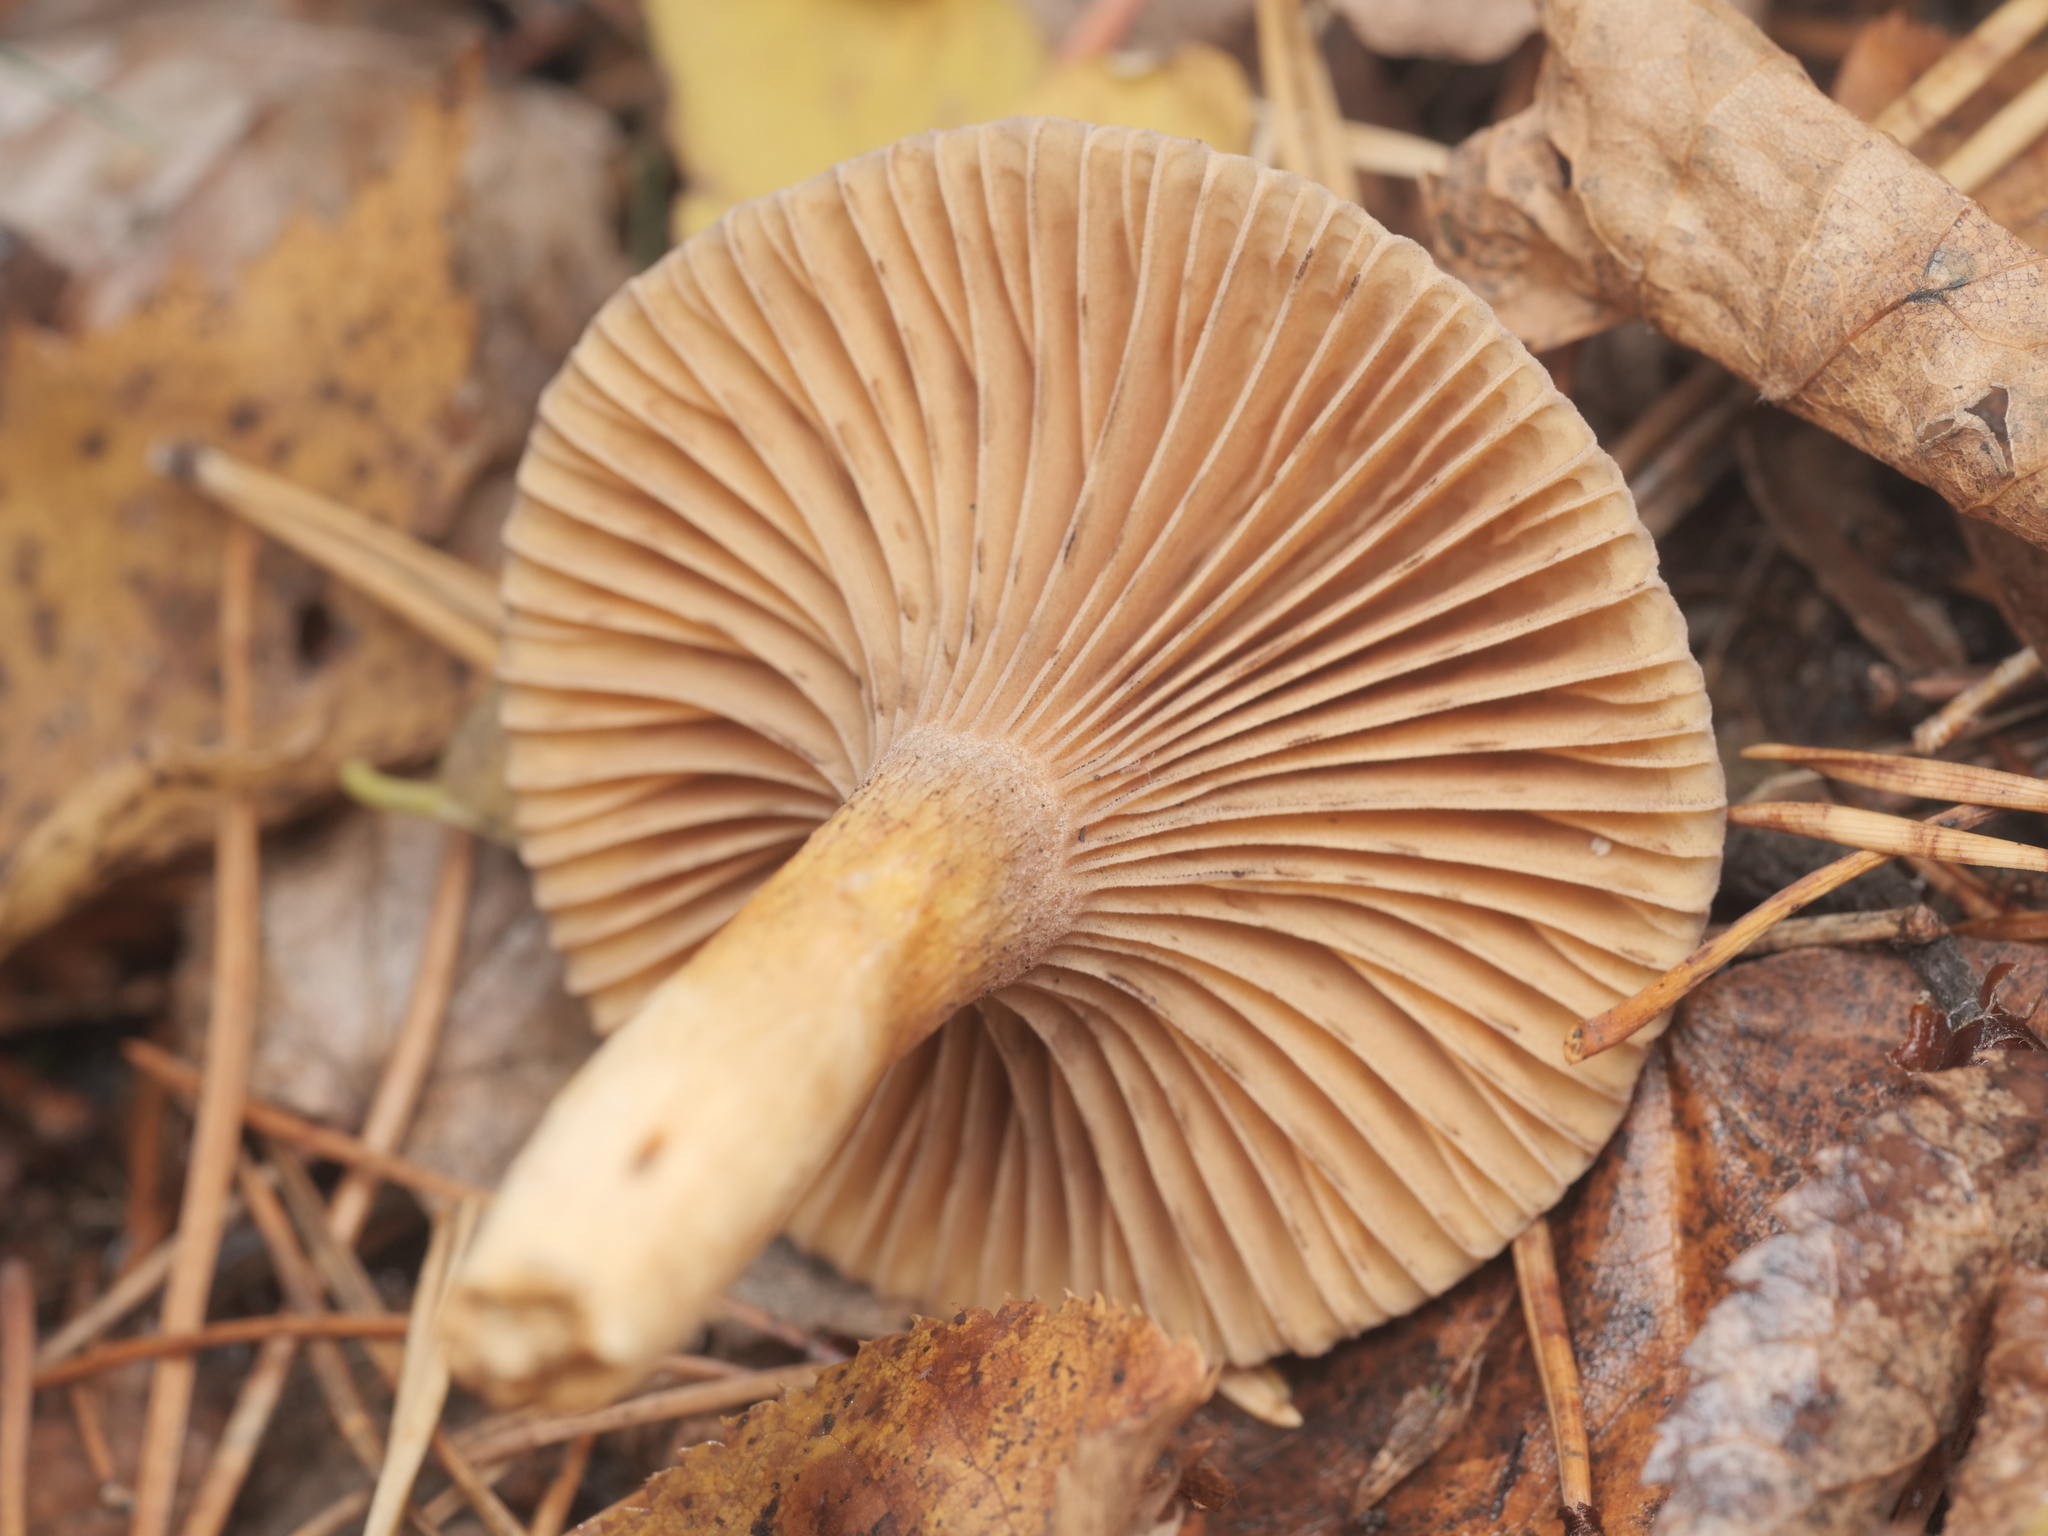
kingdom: Fungi
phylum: Basidiomycota
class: Agaricomycetes
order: Boletales
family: Gomphidiaceae
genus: Chroogomphus
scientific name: Chroogomphus rutilus
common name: Copper spike
